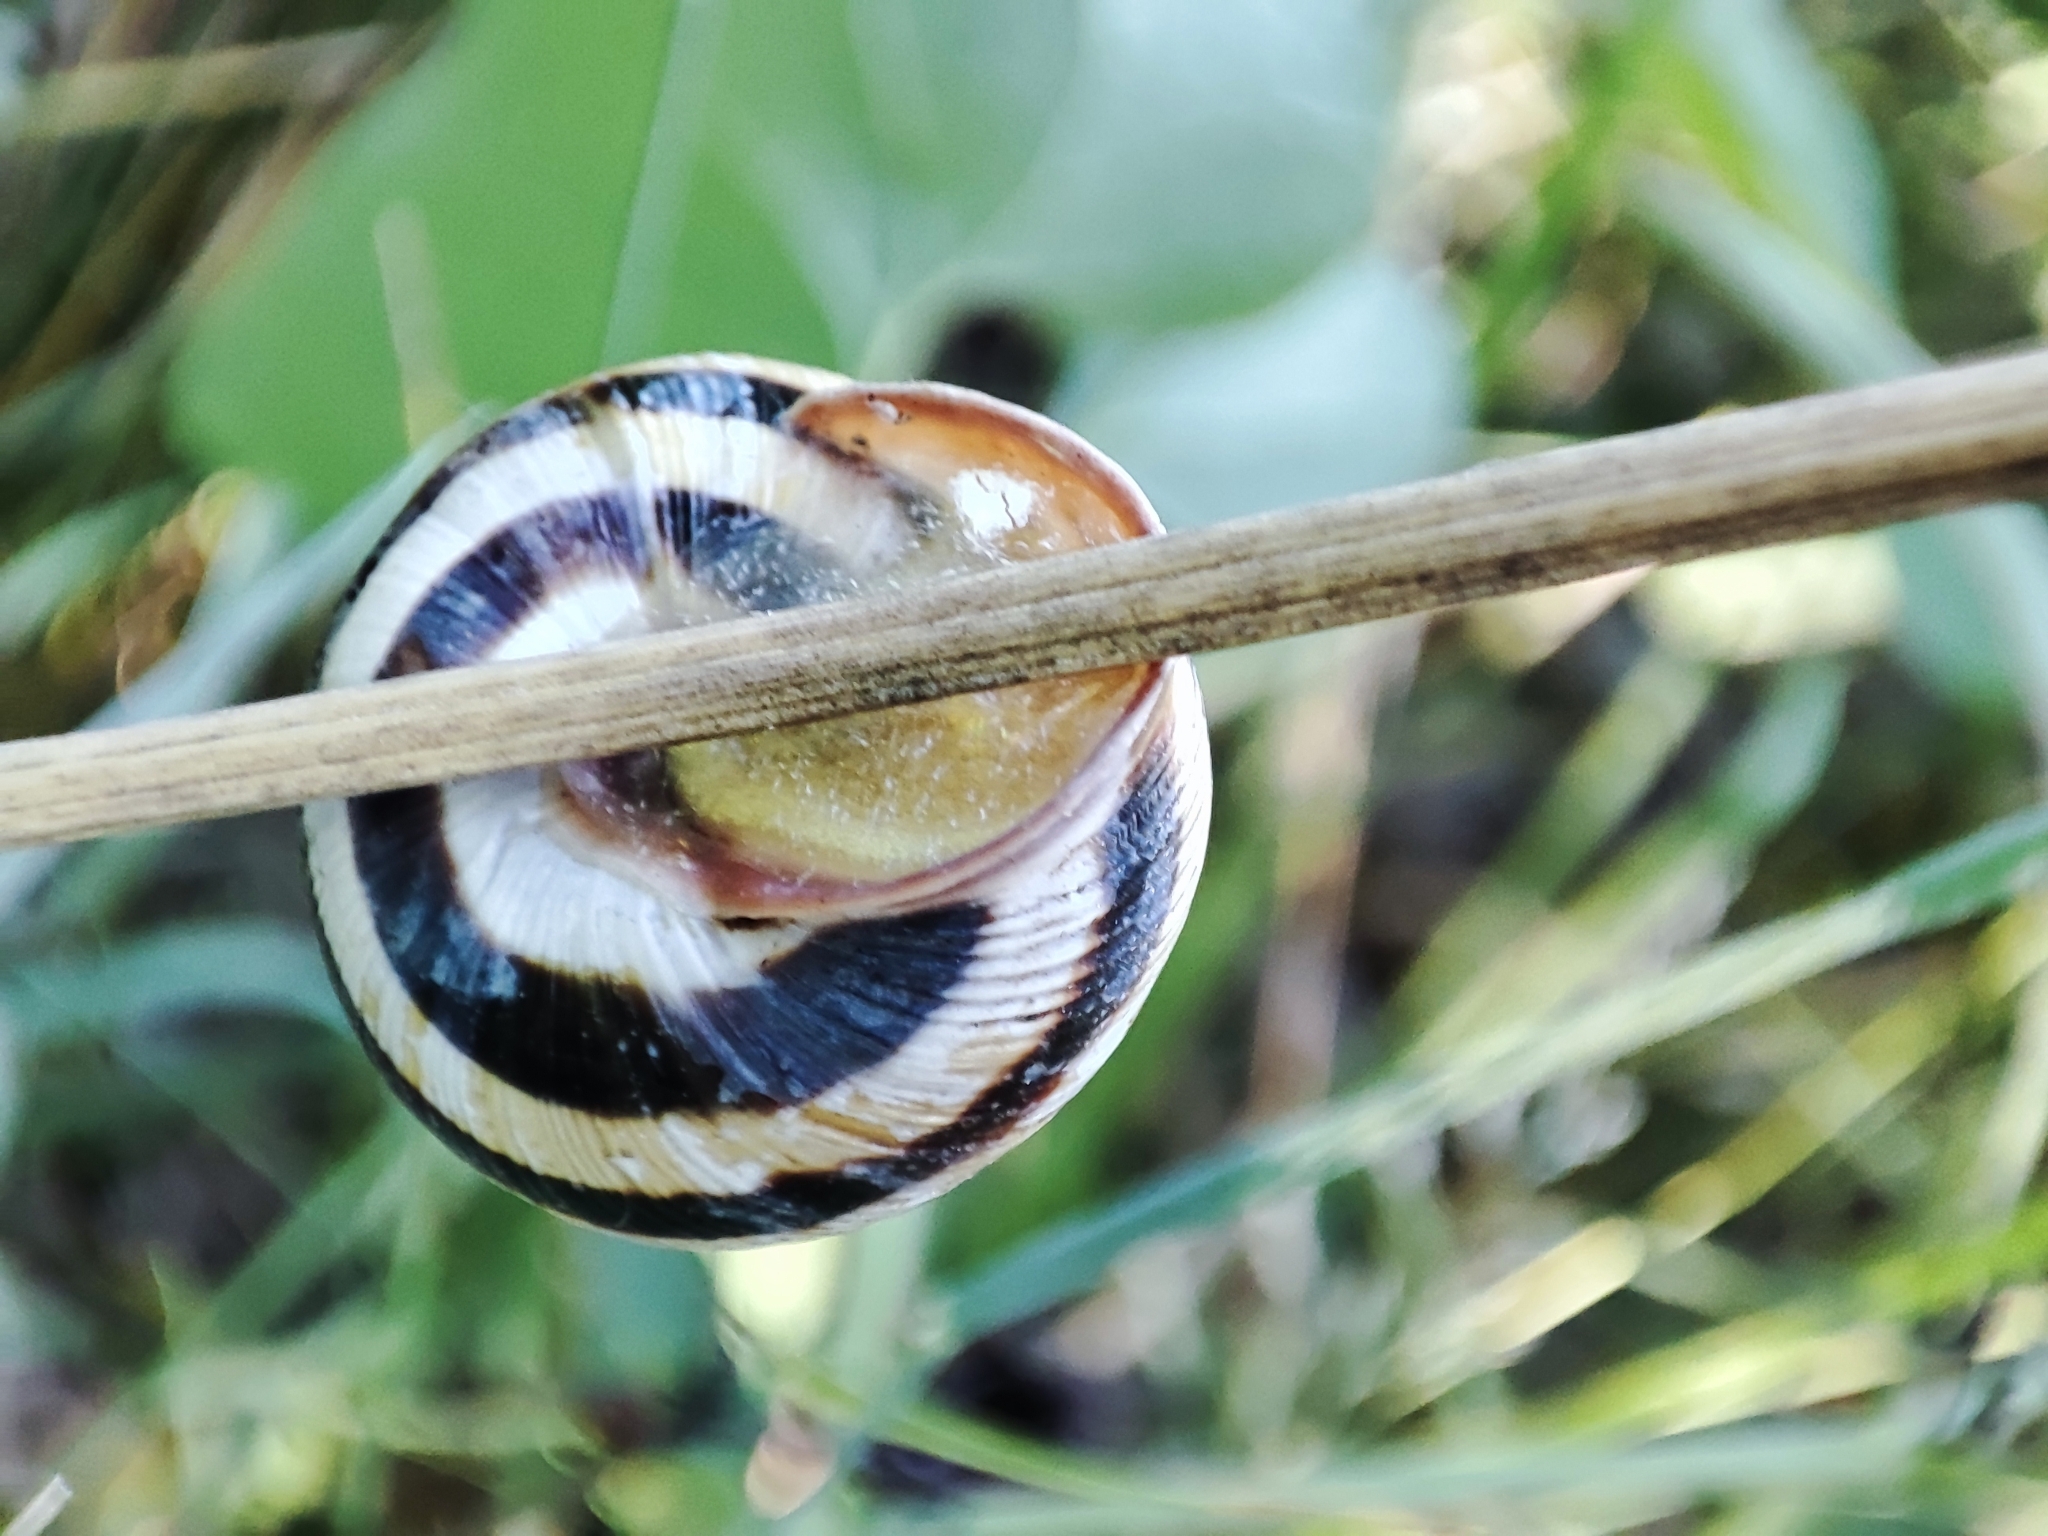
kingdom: Animalia
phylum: Mollusca
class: Gastropoda
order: Stylommatophora
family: Helicidae
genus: Caucasotachea
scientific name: Caucasotachea vindobonensis
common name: European helicid land snail
